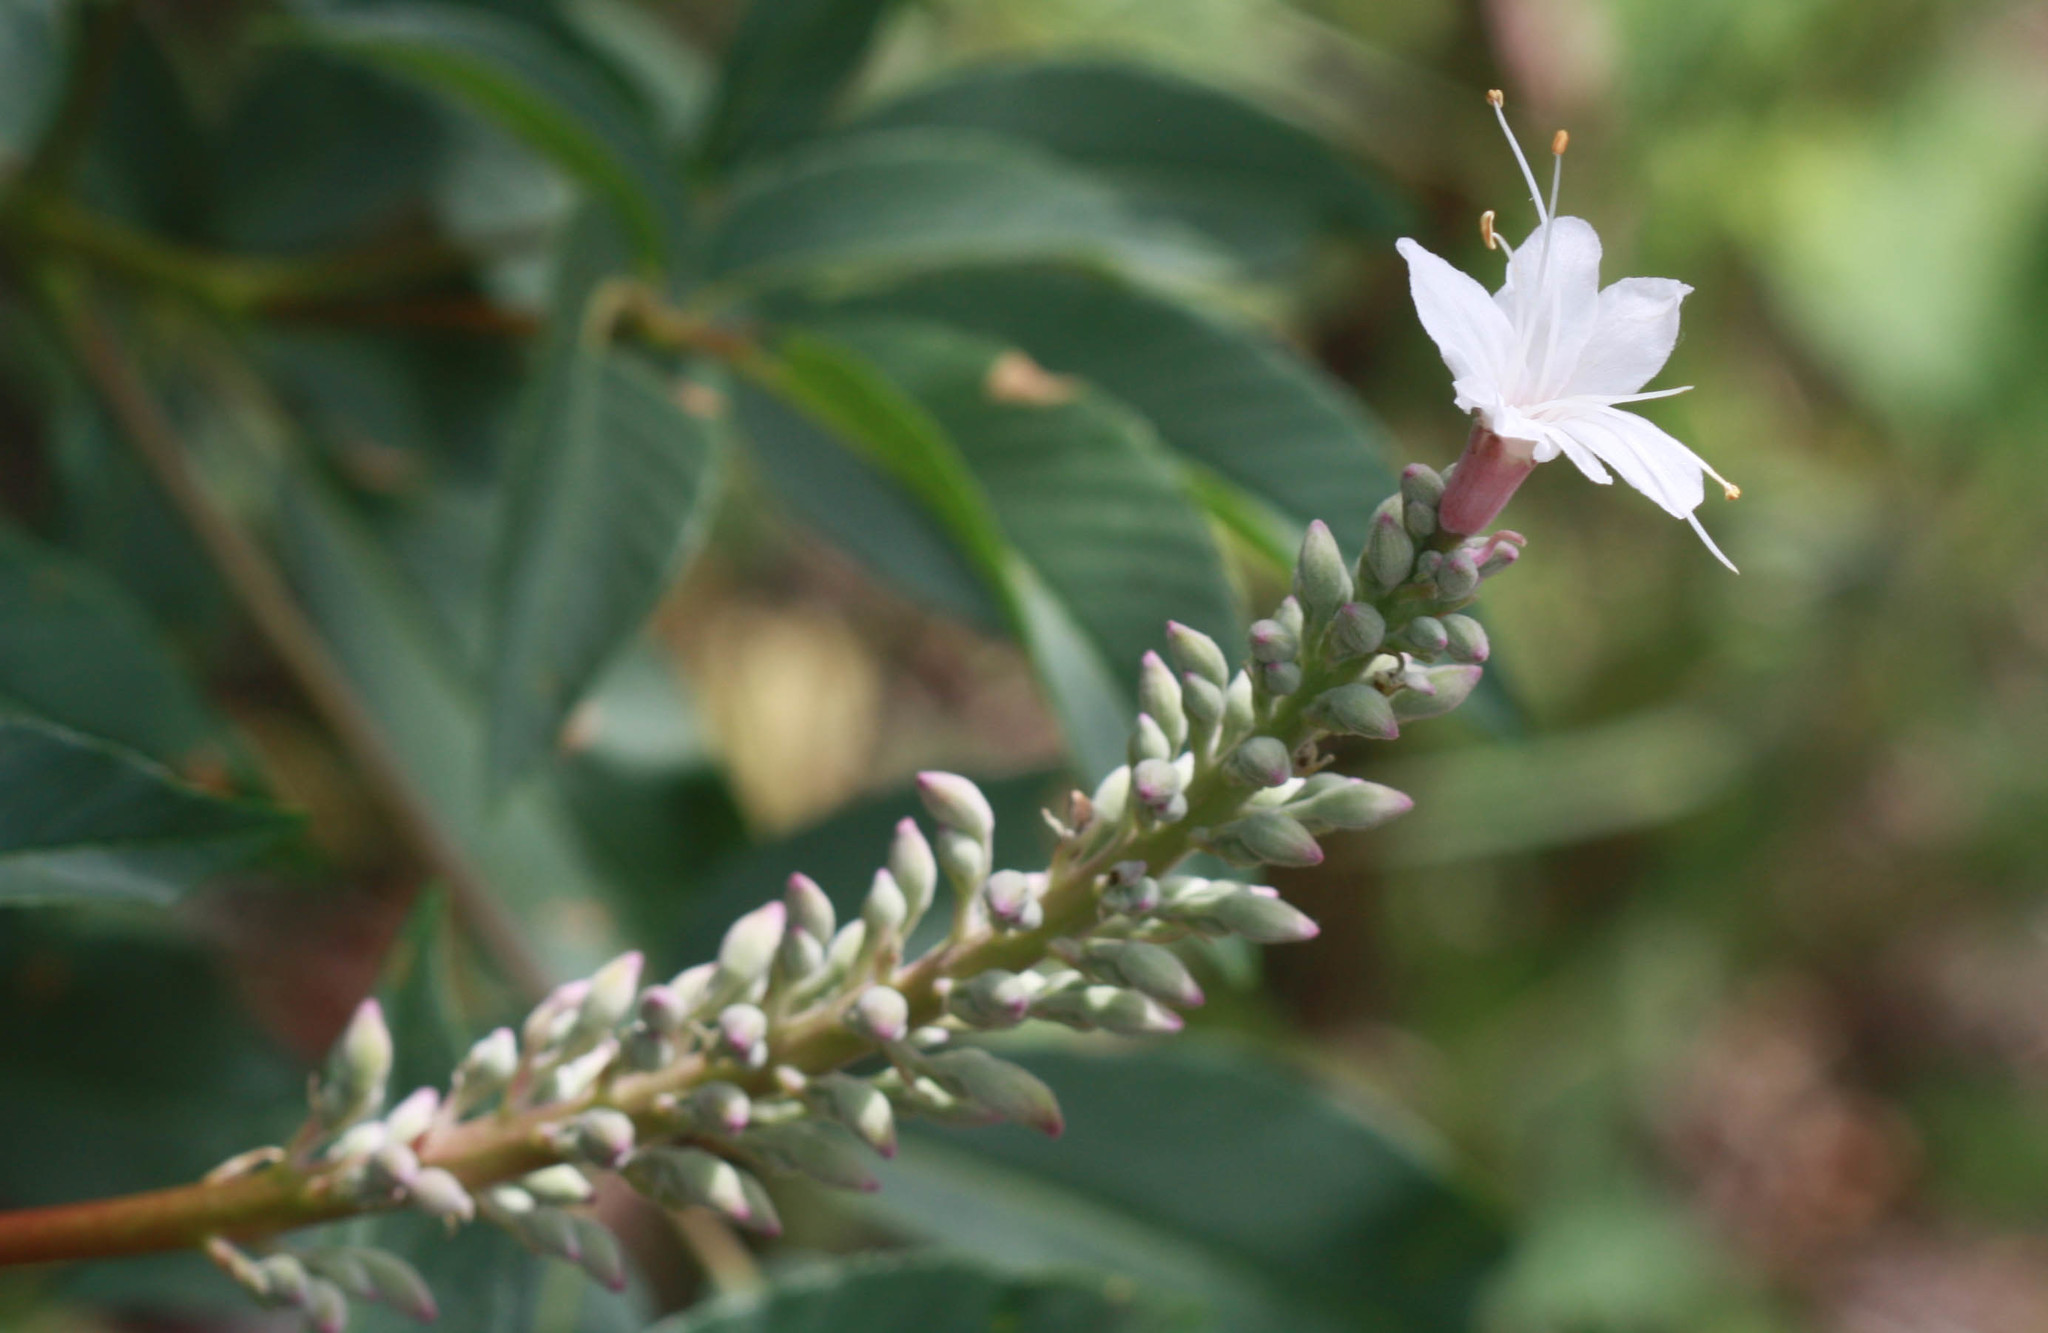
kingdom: Plantae
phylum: Tracheophyta
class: Magnoliopsida
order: Sapindales
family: Sapindaceae
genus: Aesculus
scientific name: Aesculus californica
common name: California buckeye
